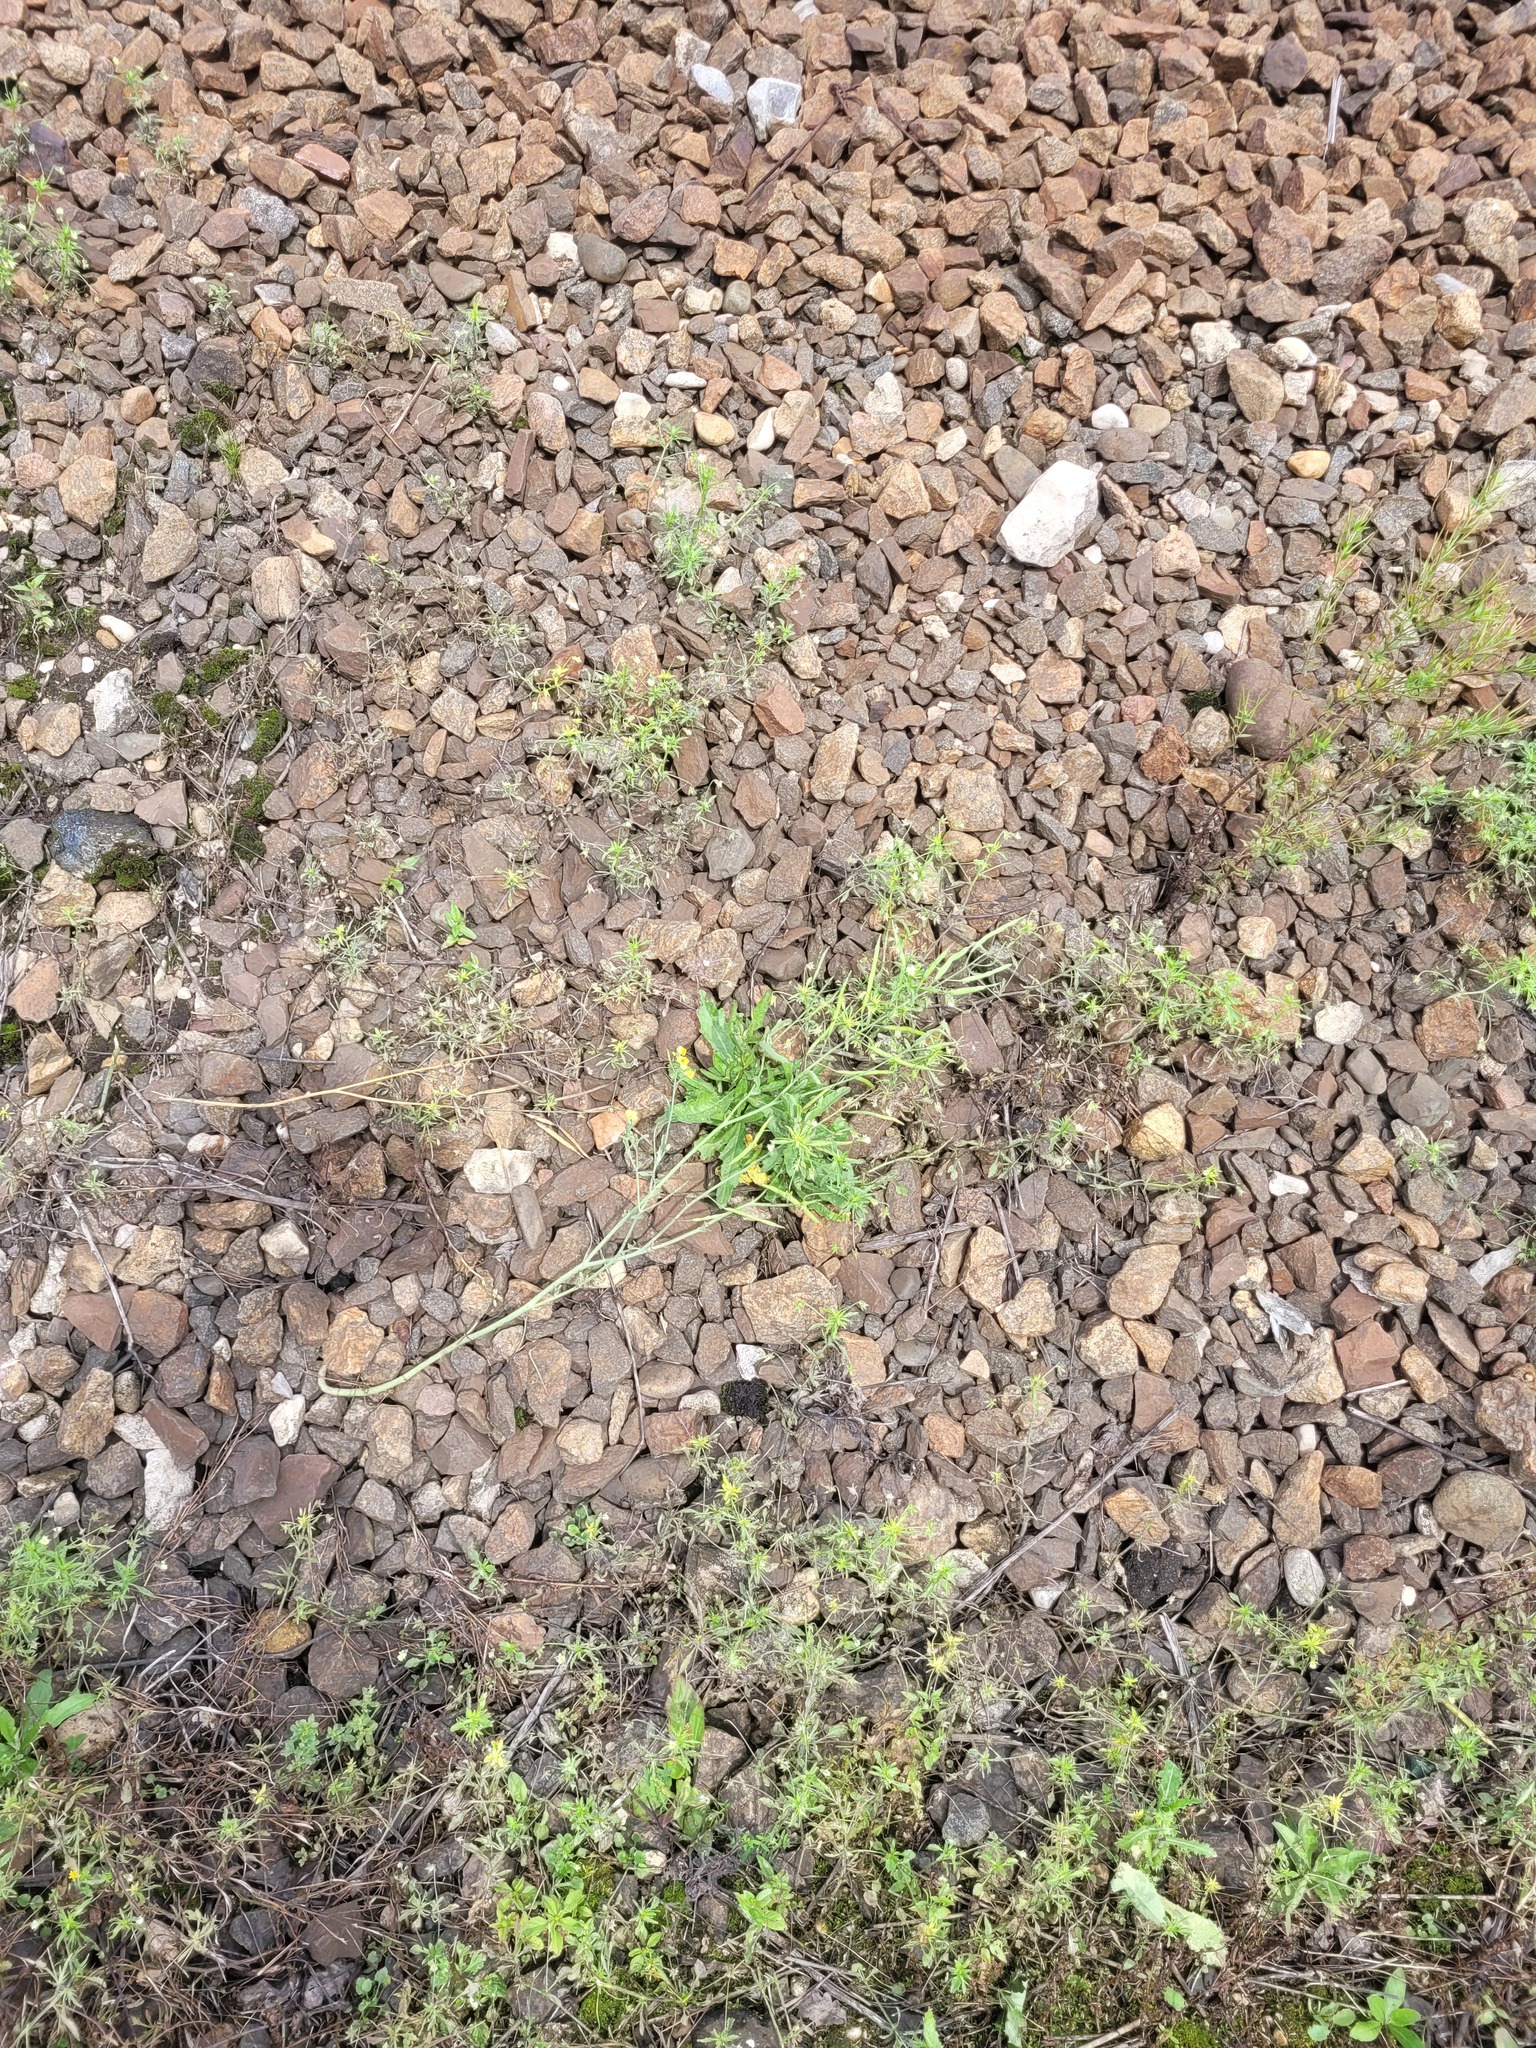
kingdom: Plantae
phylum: Tracheophyta
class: Magnoliopsida
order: Brassicales
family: Brassicaceae
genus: Brassica
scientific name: Brassica napus
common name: Rape
